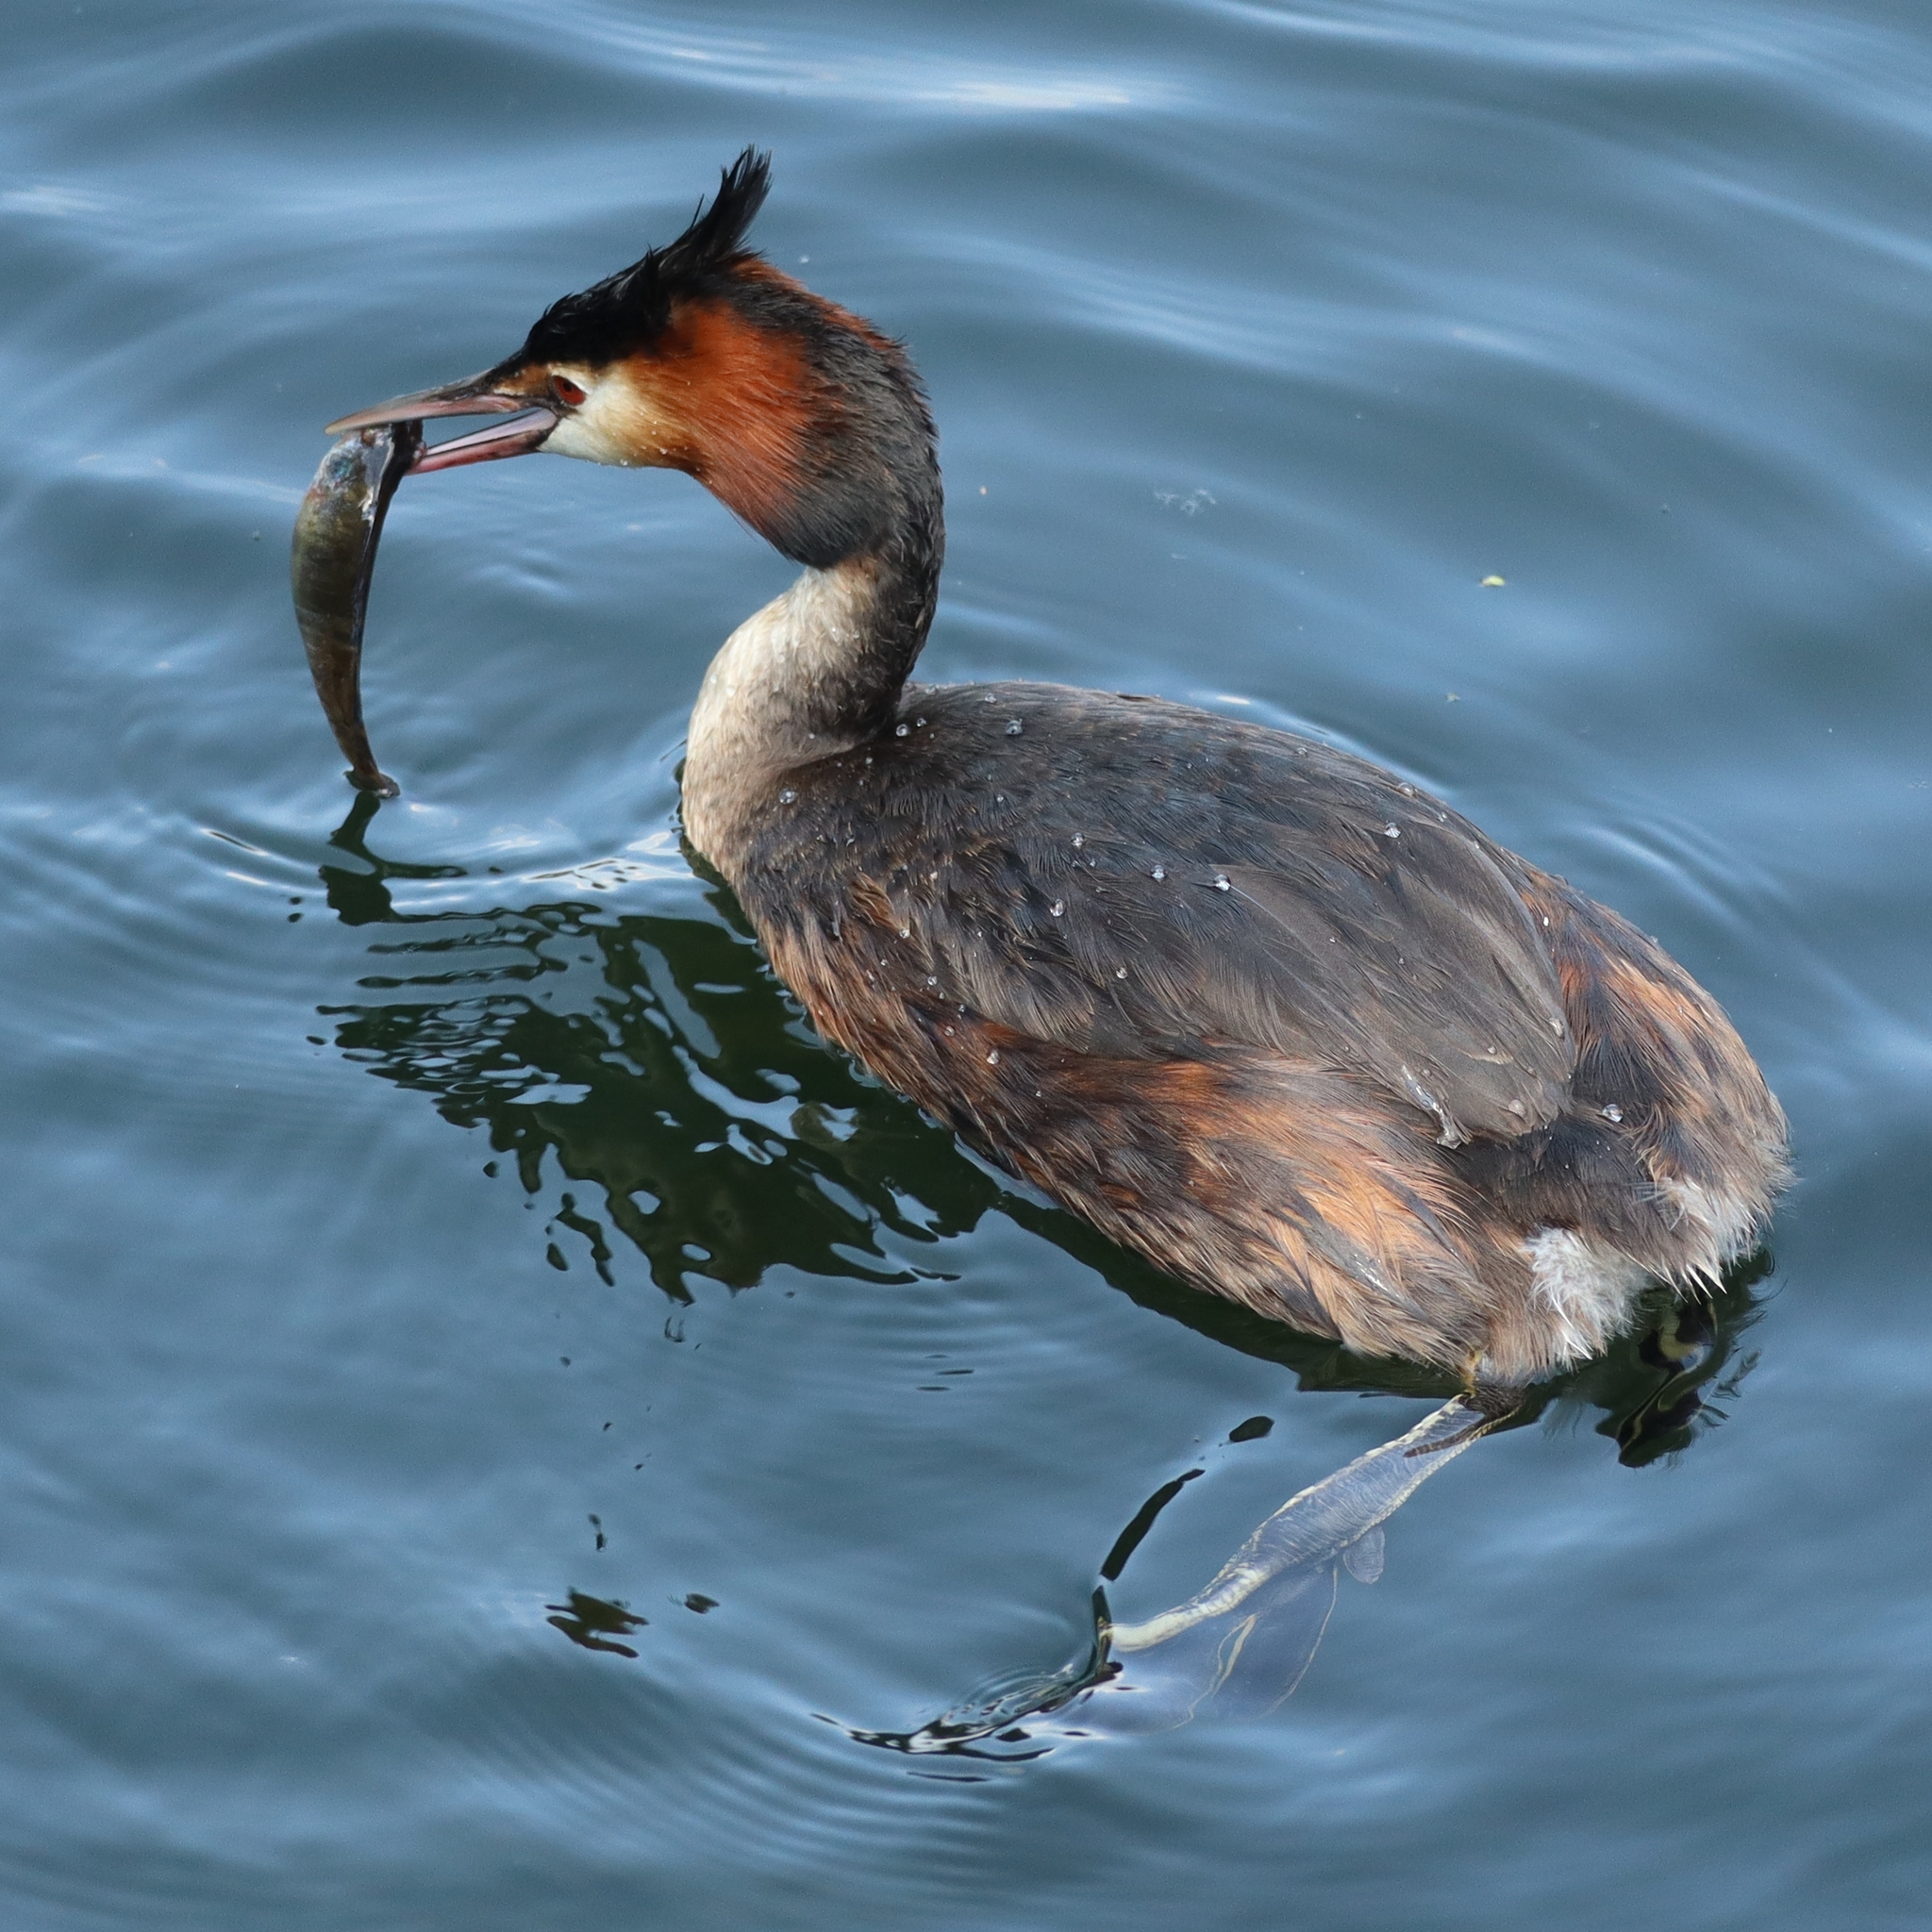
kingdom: Animalia
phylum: Chordata
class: Aves
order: Podicipediformes
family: Podicipedidae
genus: Podiceps
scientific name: Podiceps cristatus
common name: Great crested grebe
